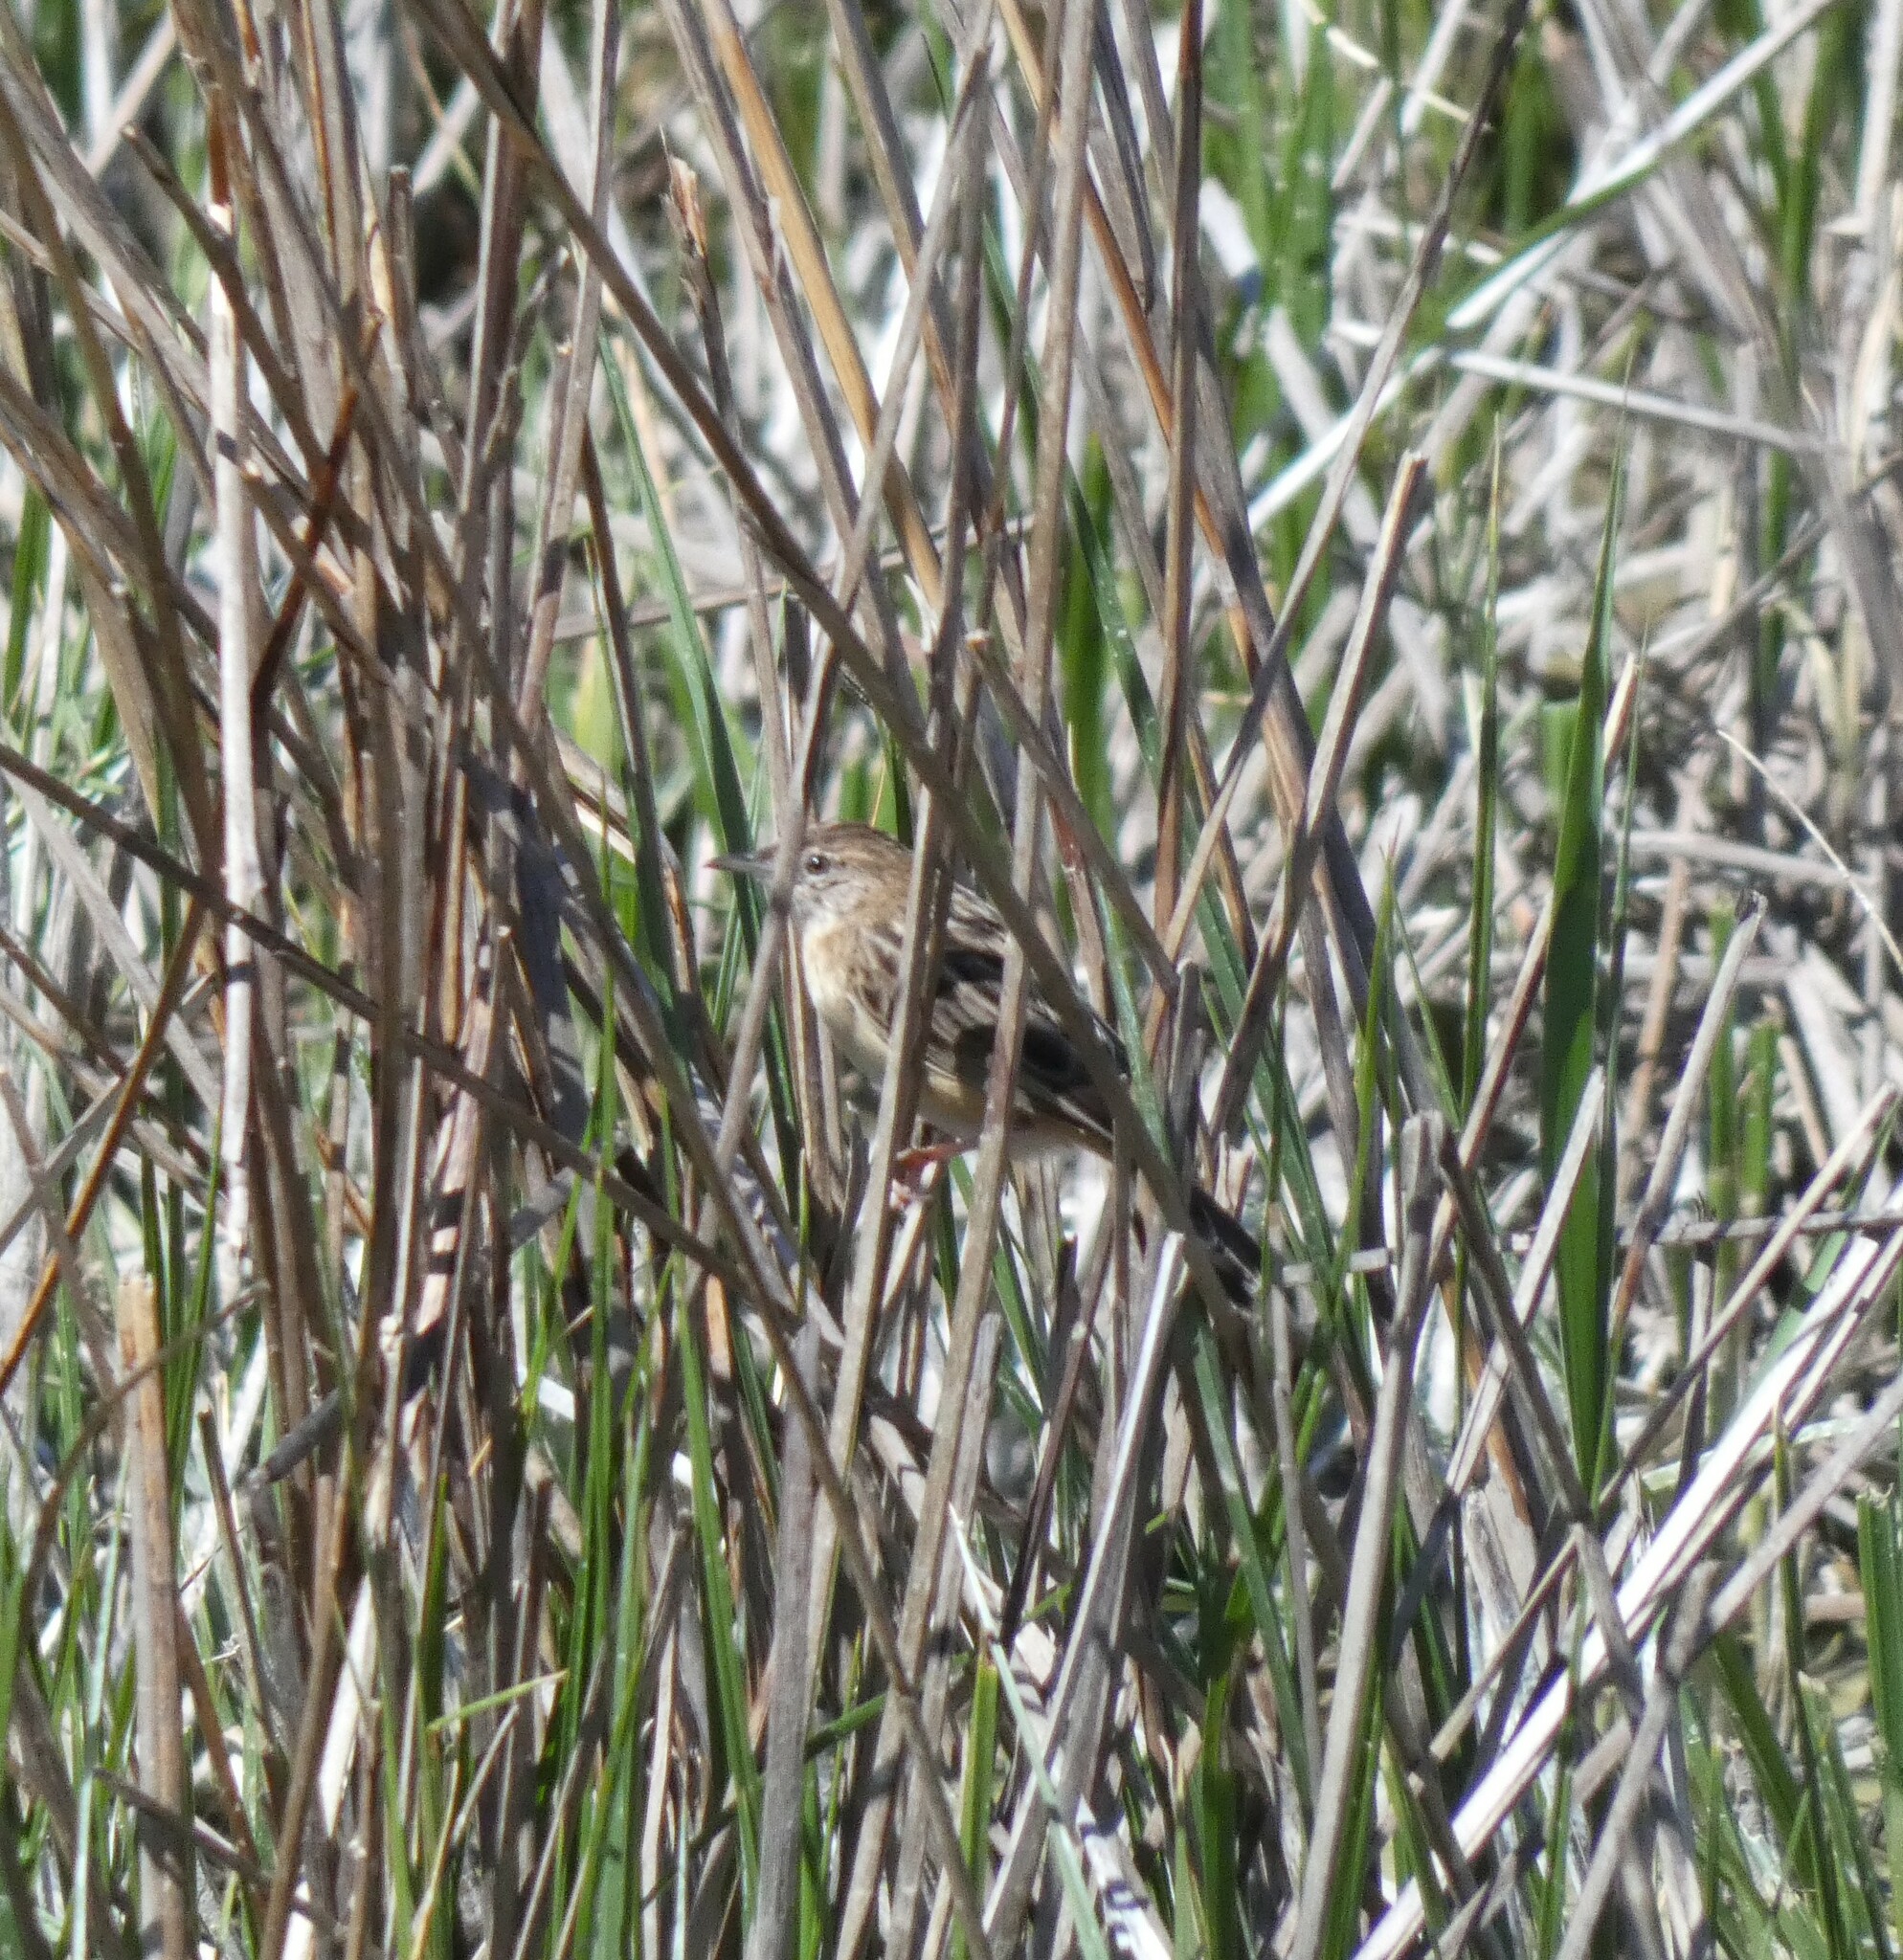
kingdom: Animalia
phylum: Chordata
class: Aves
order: Passeriformes
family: Cisticolidae
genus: Cisticola
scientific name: Cisticola juncidis
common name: Zitting cisticola
